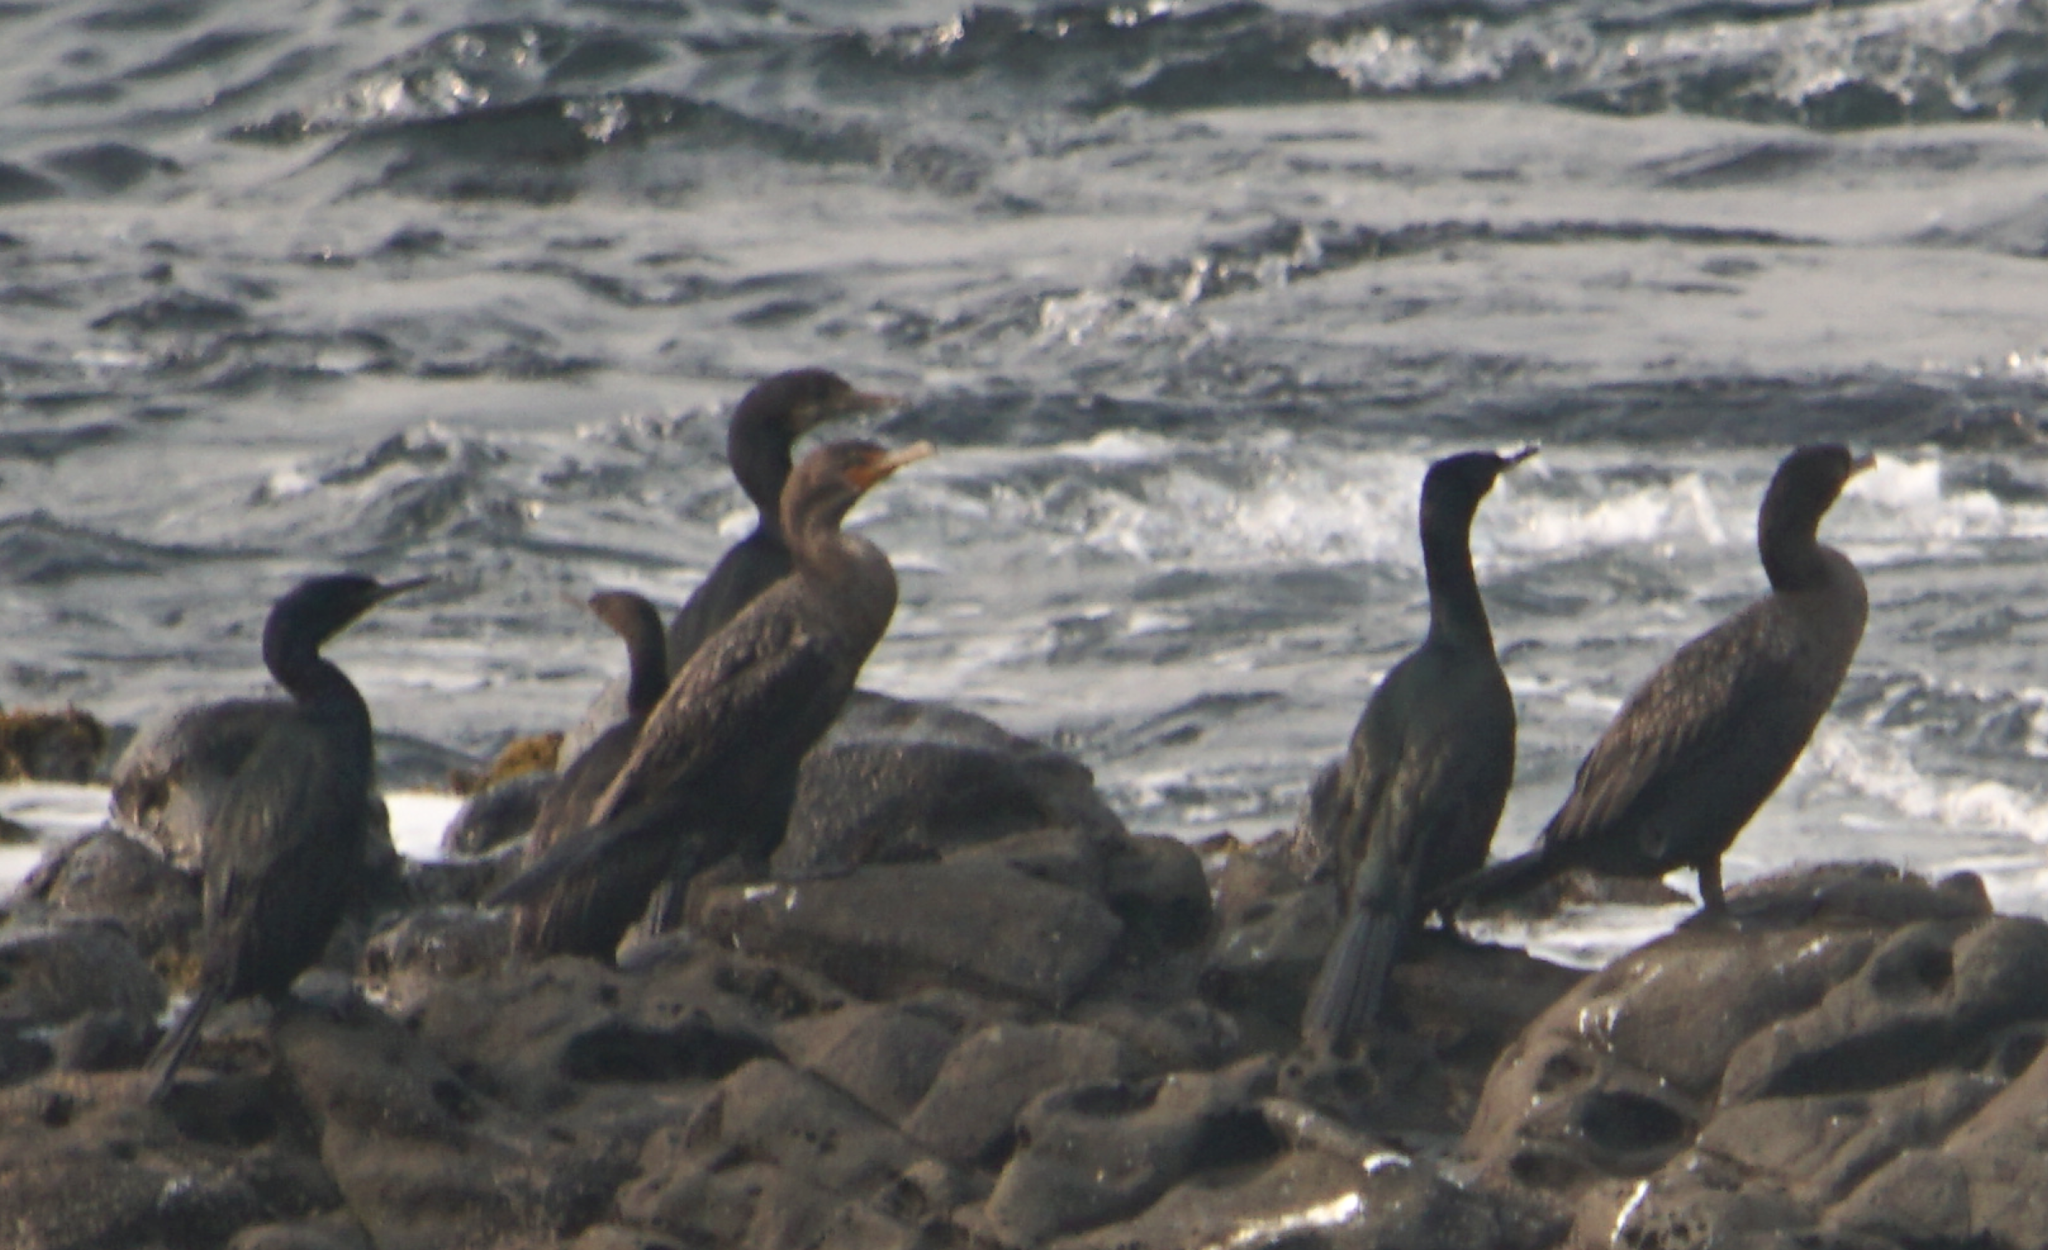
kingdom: Animalia
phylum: Chordata
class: Aves
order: Suliformes
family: Phalacrocoracidae
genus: Phalacrocorax
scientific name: Phalacrocorax auritus
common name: Double-crested cormorant
